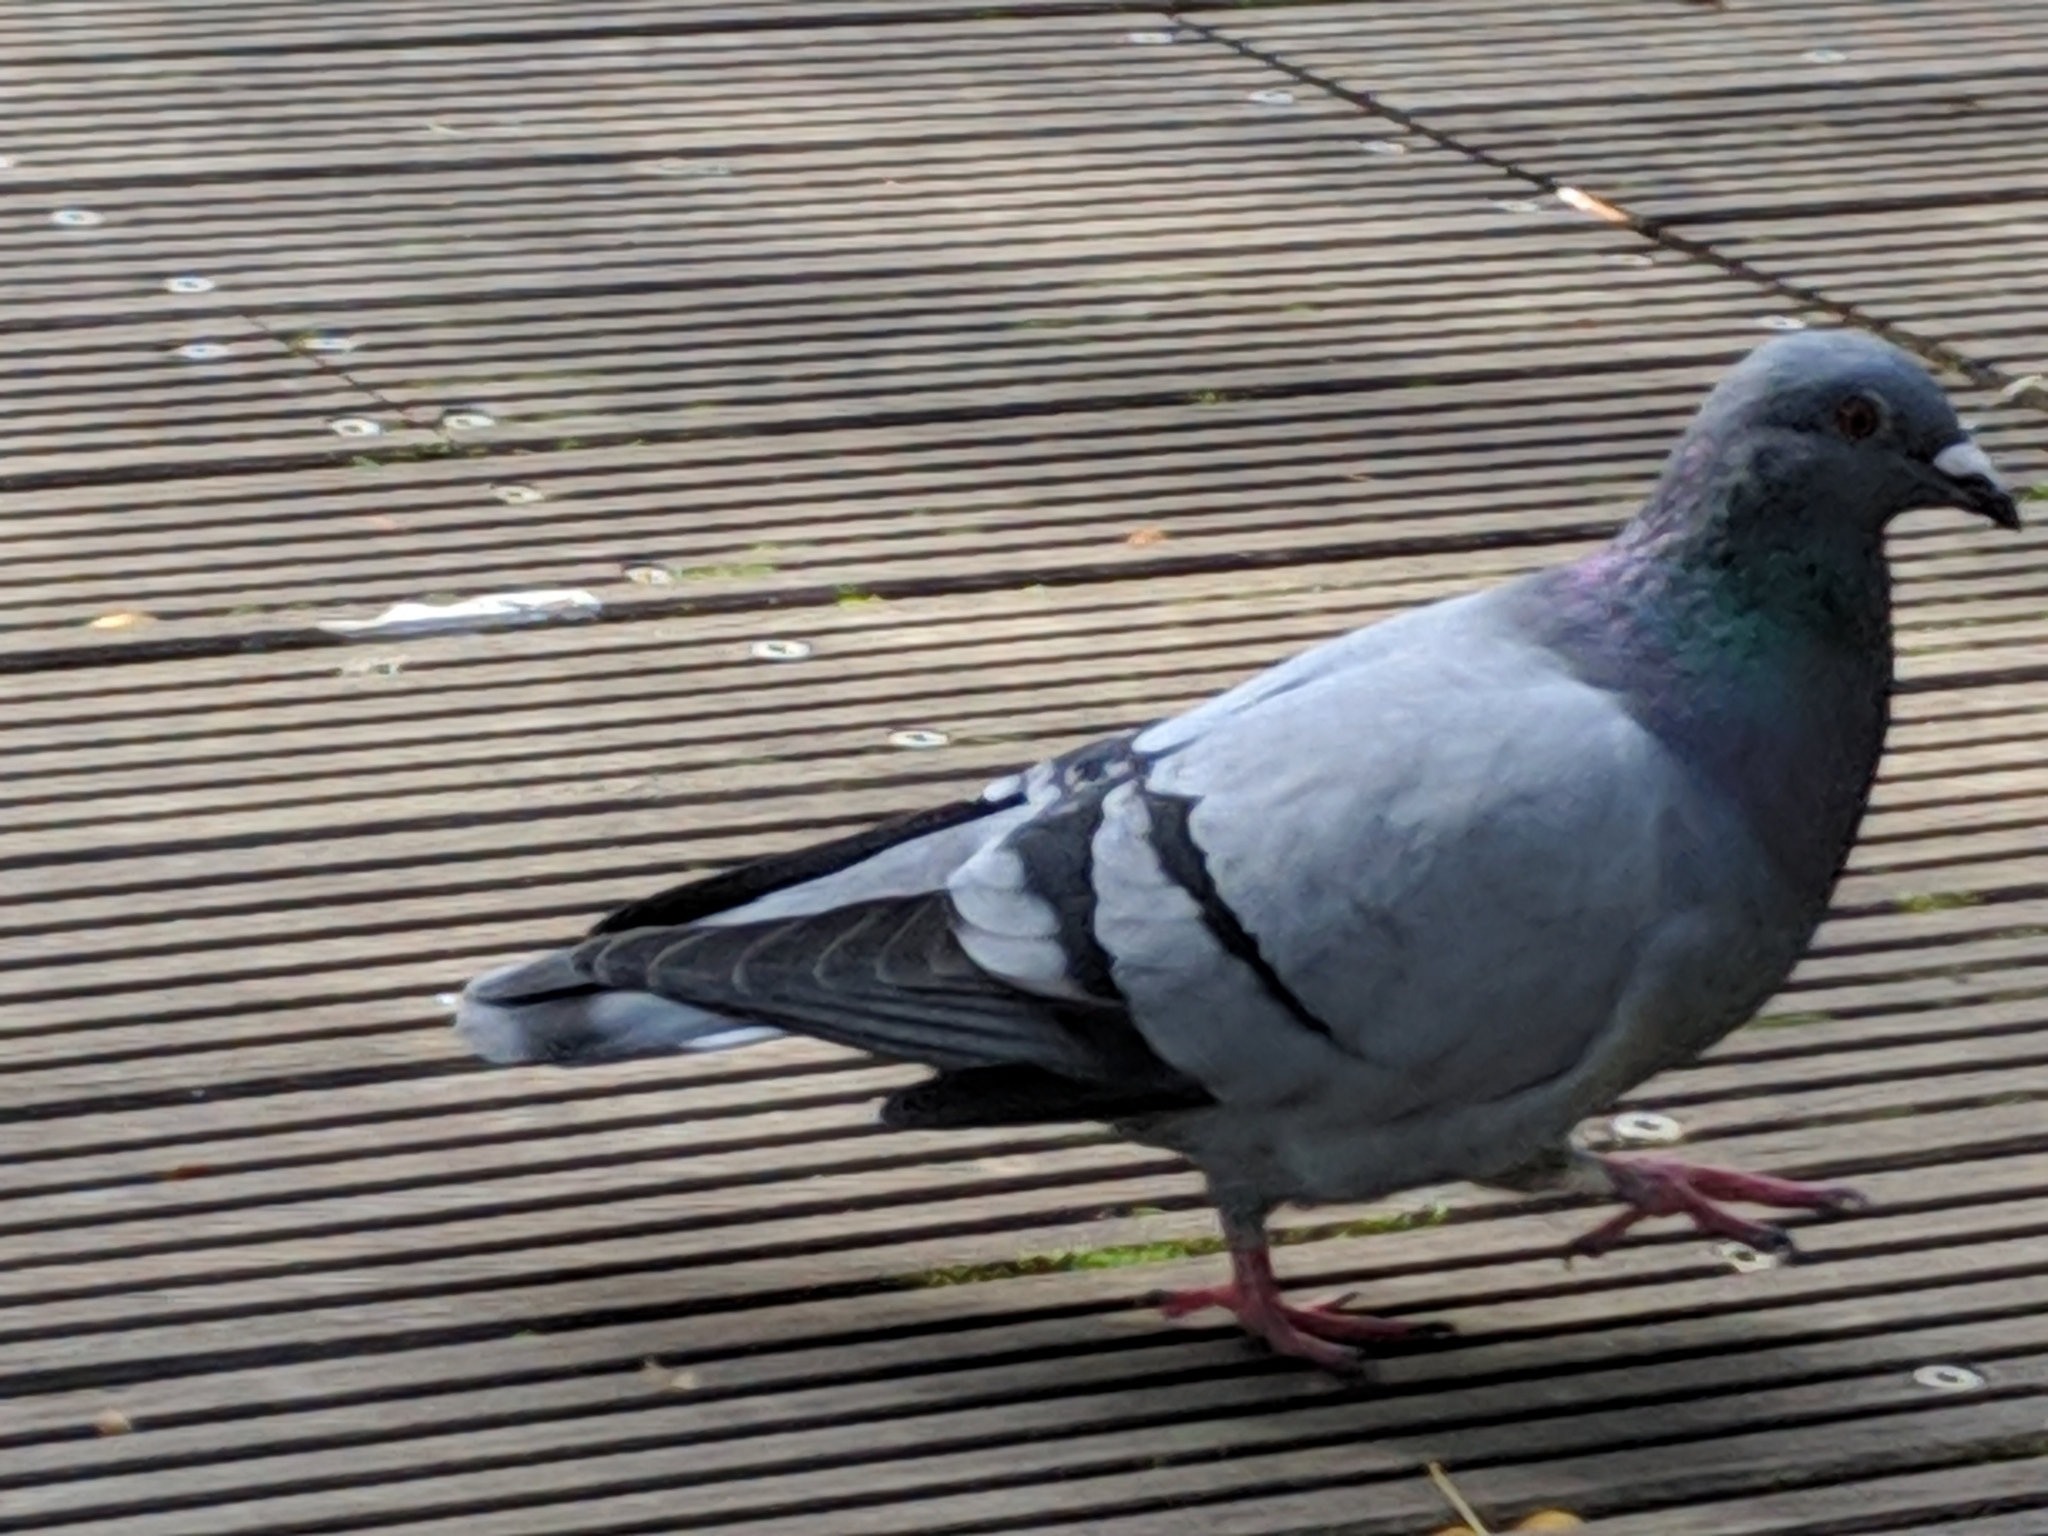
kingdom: Animalia
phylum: Chordata
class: Aves
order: Columbiformes
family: Columbidae
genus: Columba
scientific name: Columba livia
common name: Rock pigeon
